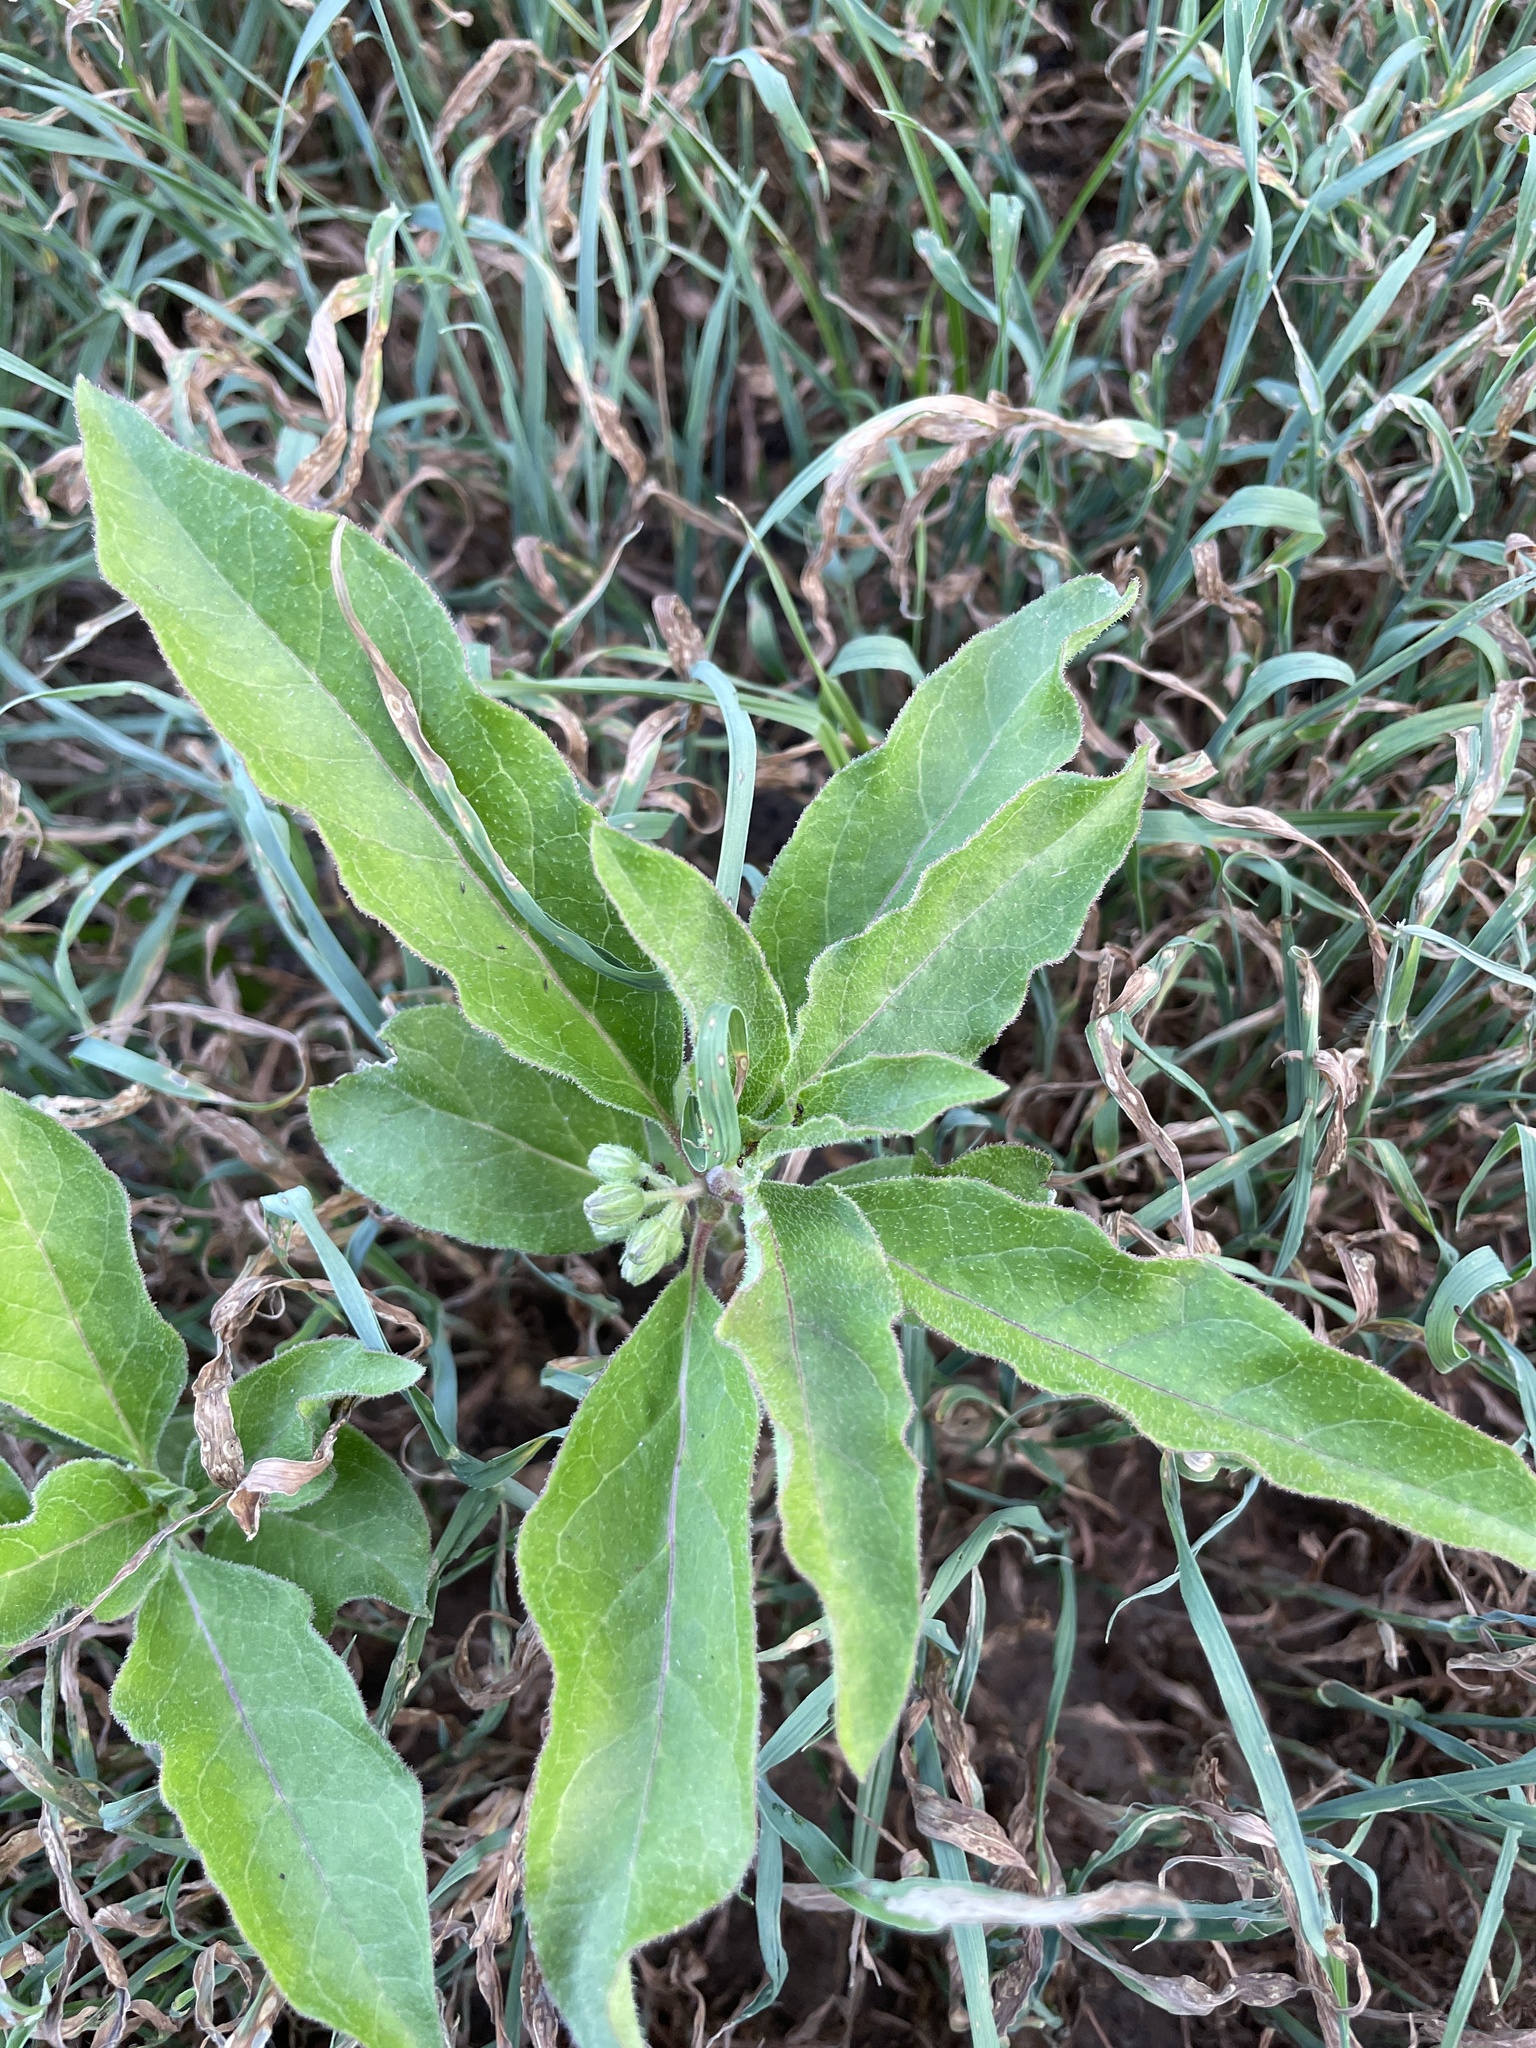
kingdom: Plantae
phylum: Tracheophyta
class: Magnoliopsida
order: Gentianales
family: Apocynaceae
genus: Asclepias
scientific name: Asclepias oenotheroides
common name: Zizotes milkweed
